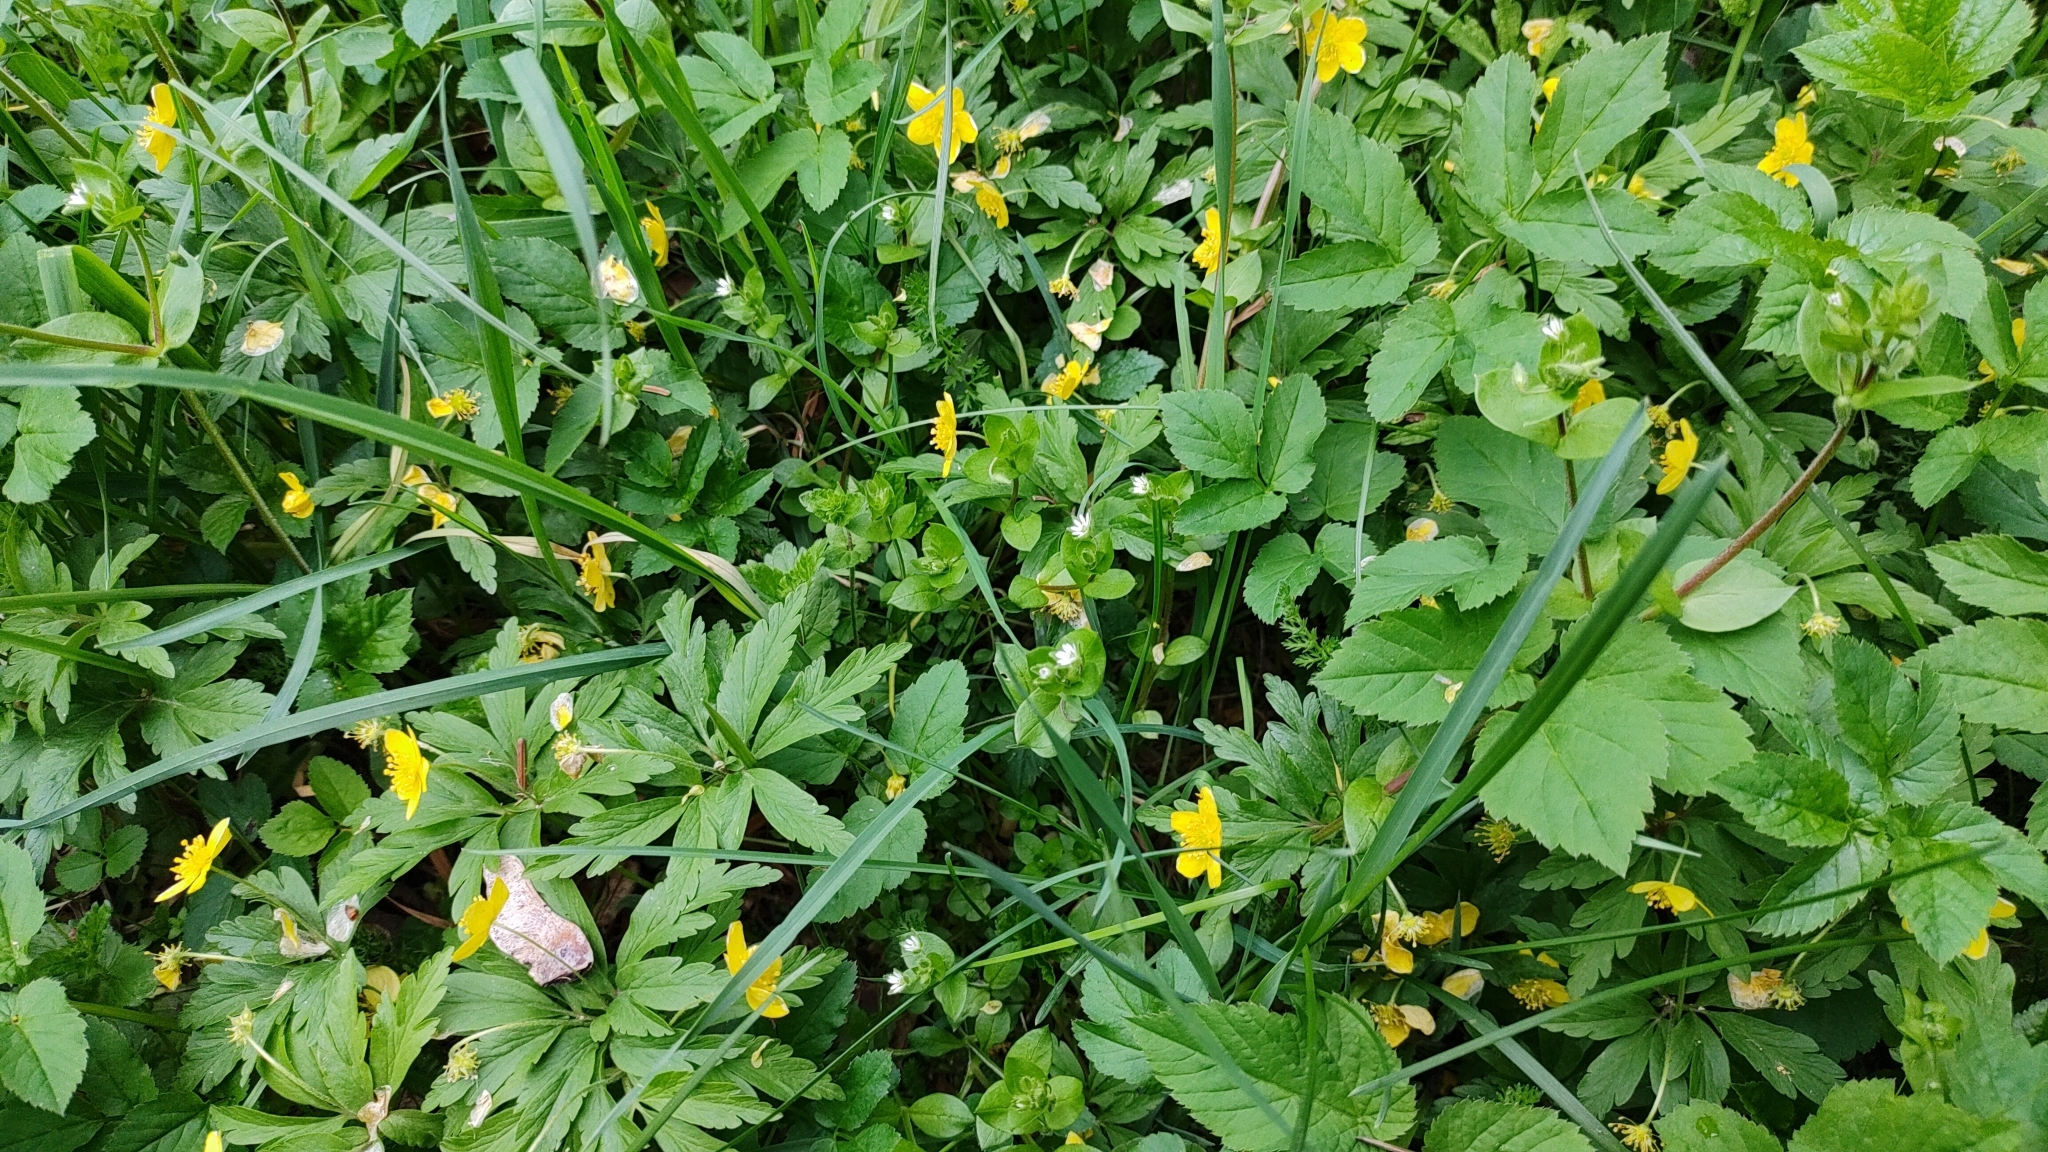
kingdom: Plantae
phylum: Tracheophyta
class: Magnoliopsida
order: Ranunculales
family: Ranunculaceae
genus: Anemone
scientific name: Anemone ranunculoides
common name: Yellow anemone
